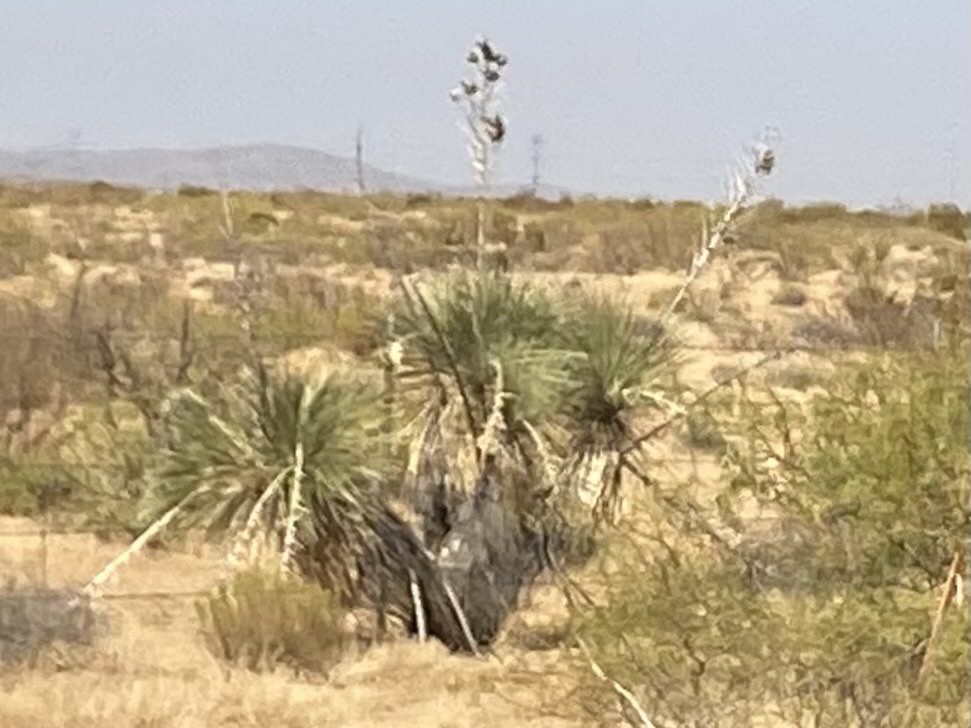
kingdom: Plantae
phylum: Tracheophyta
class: Liliopsida
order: Asparagales
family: Asparagaceae
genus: Yucca
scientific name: Yucca elata
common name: Palmella
